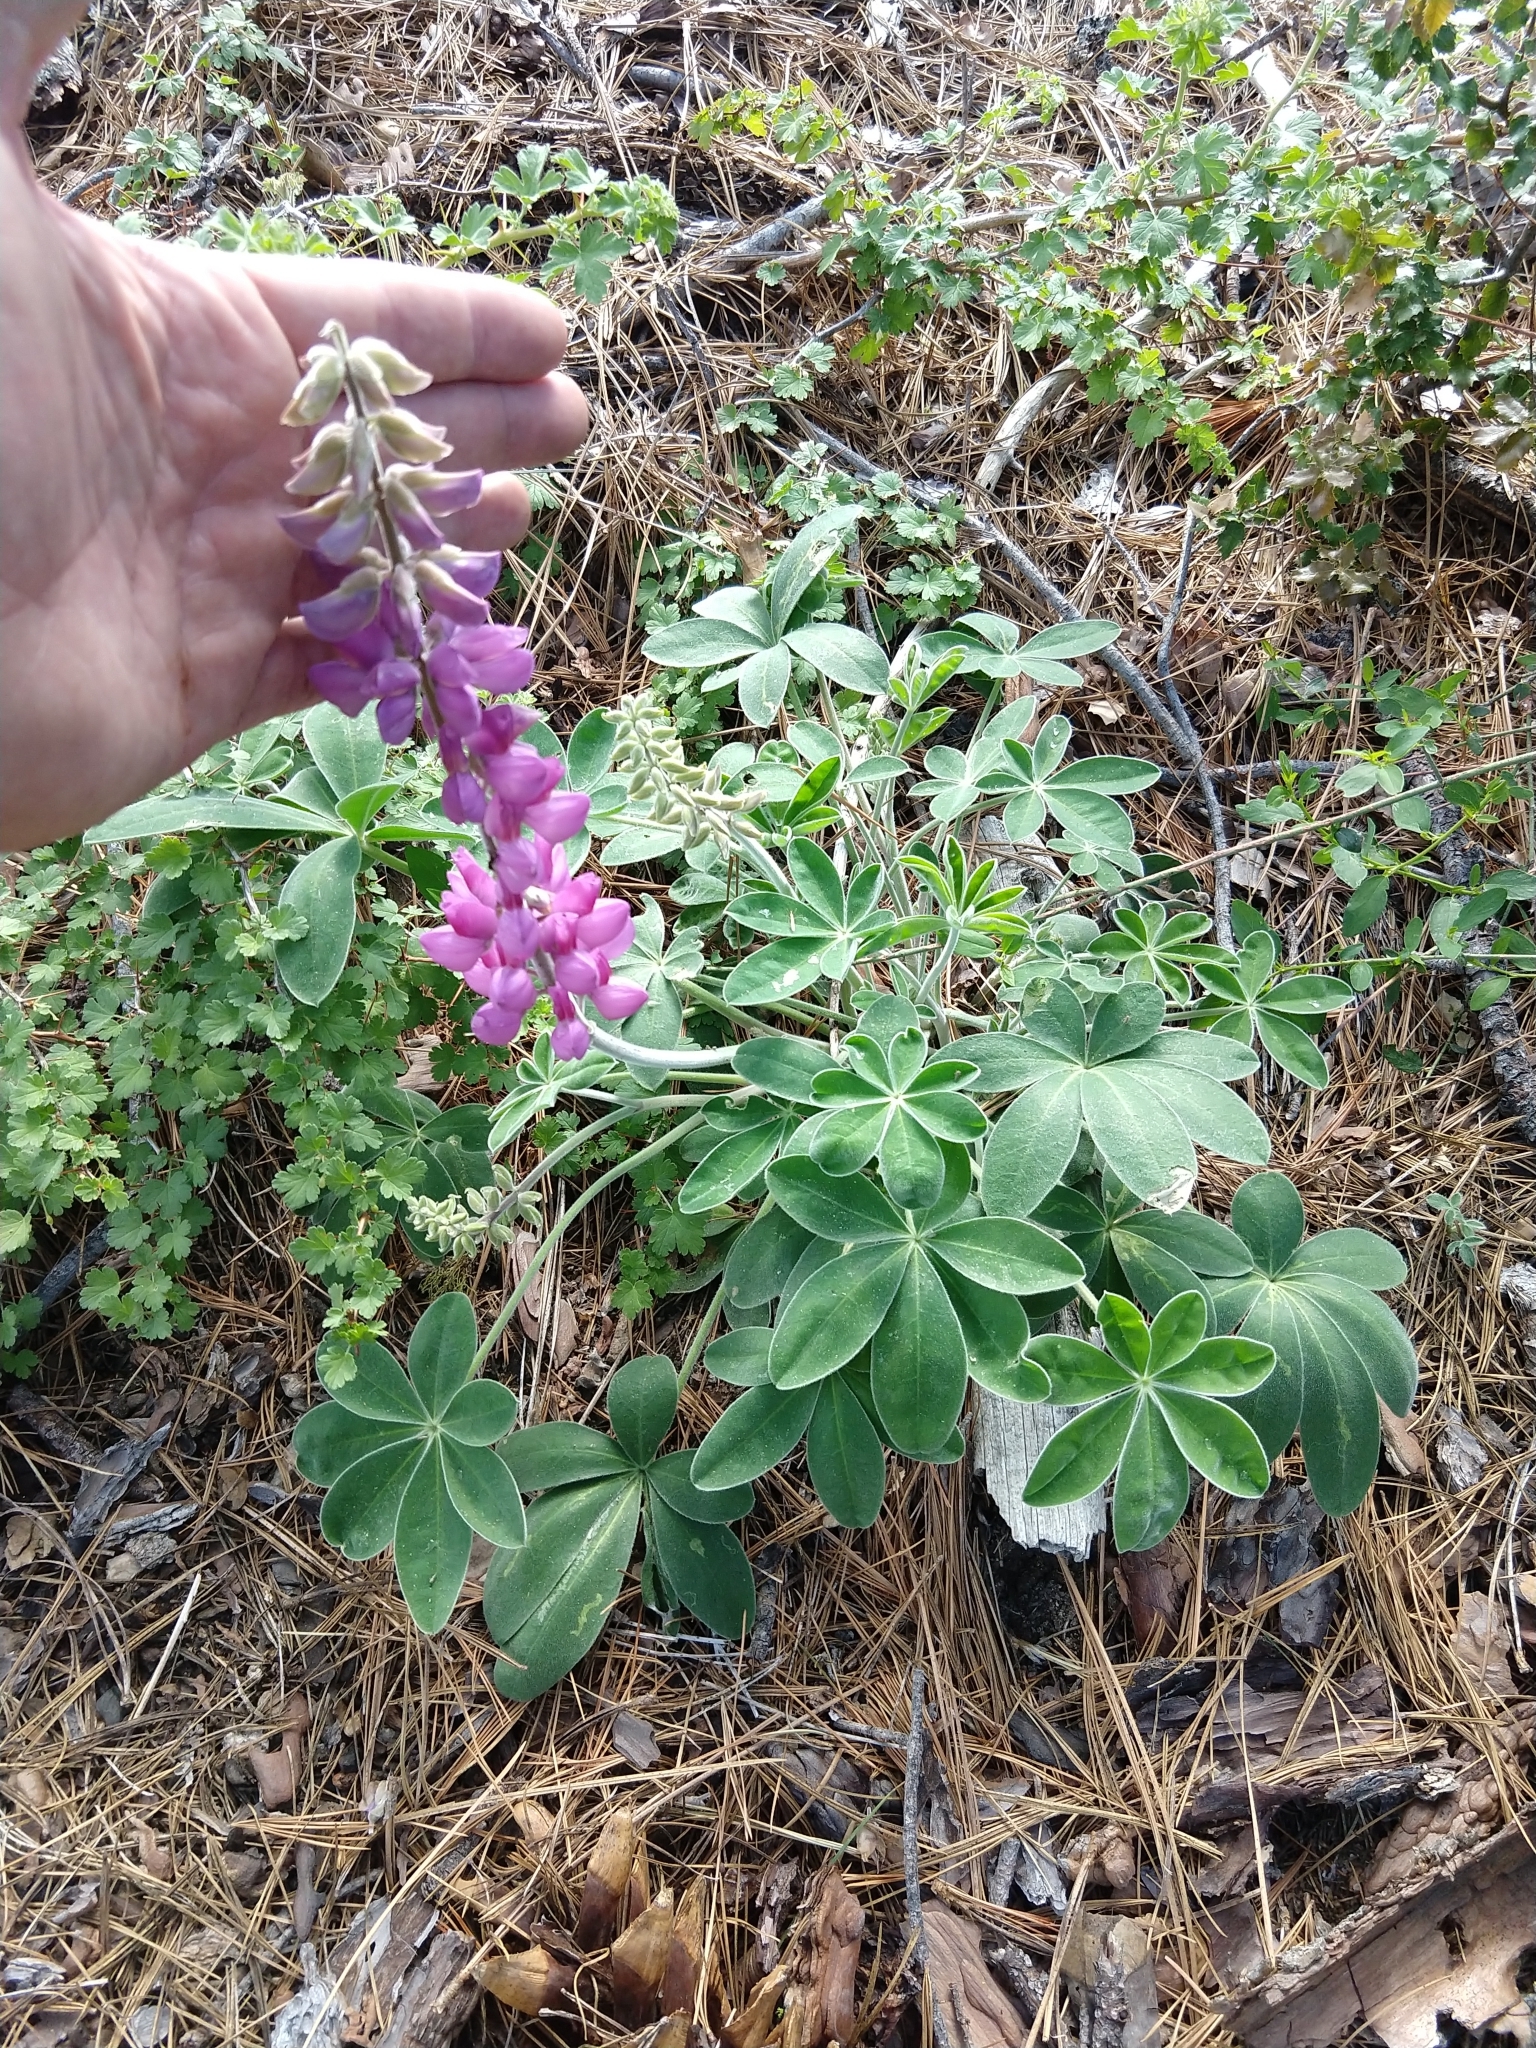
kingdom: Plantae
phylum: Tracheophyta
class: Magnoliopsida
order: Fabales
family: Fabaceae
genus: Lupinus
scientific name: Lupinus cervinus
